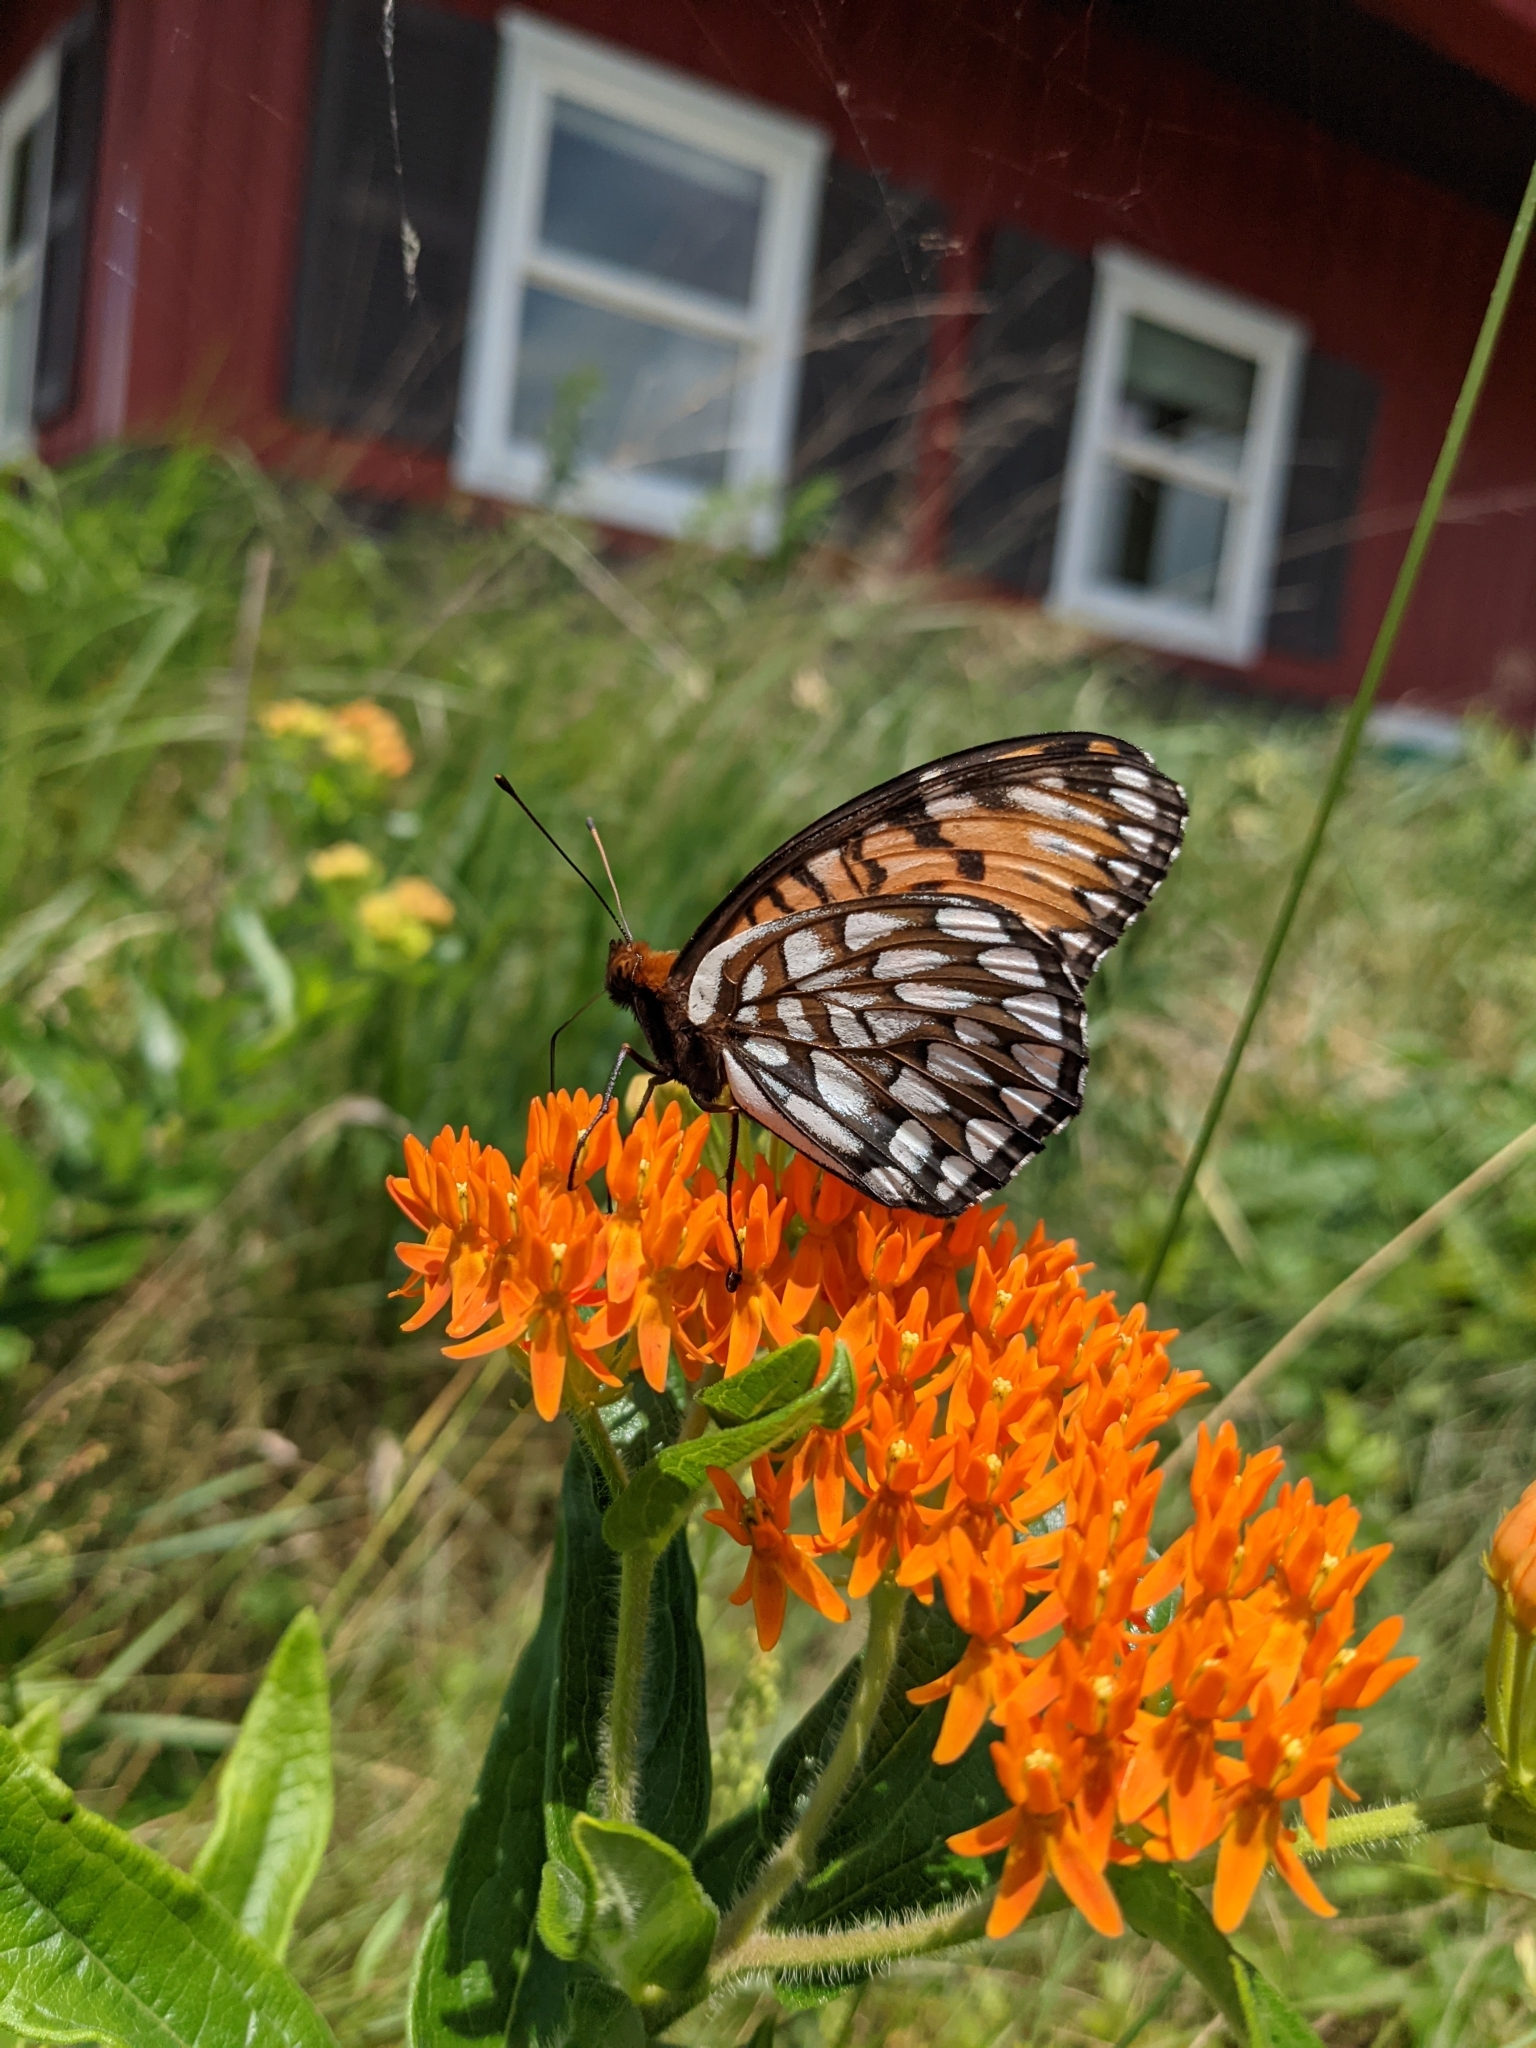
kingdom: Animalia
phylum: Arthropoda
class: Insecta
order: Lepidoptera
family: Nymphalidae
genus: Speyeria
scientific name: Speyeria idalia
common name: Regal fritillary
